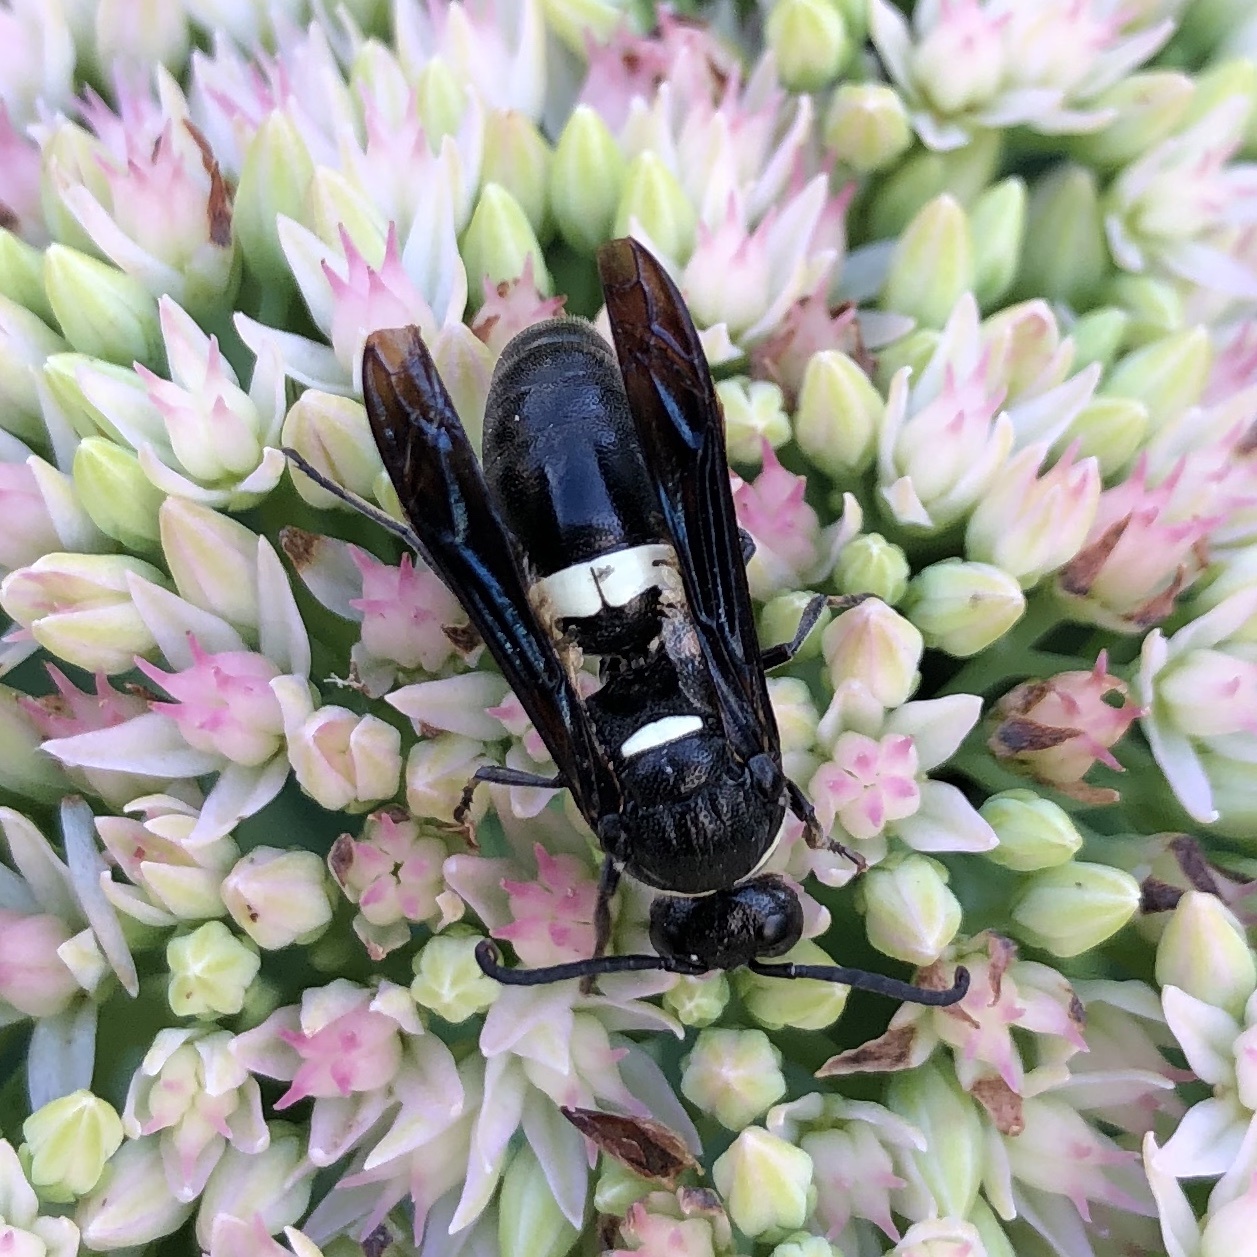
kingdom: Animalia
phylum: Arthropoda
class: Insecta
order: Hymenoptera
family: Eumenidae
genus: Monobia
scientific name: Monobia quadridens
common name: Four-toothed mason wasp
